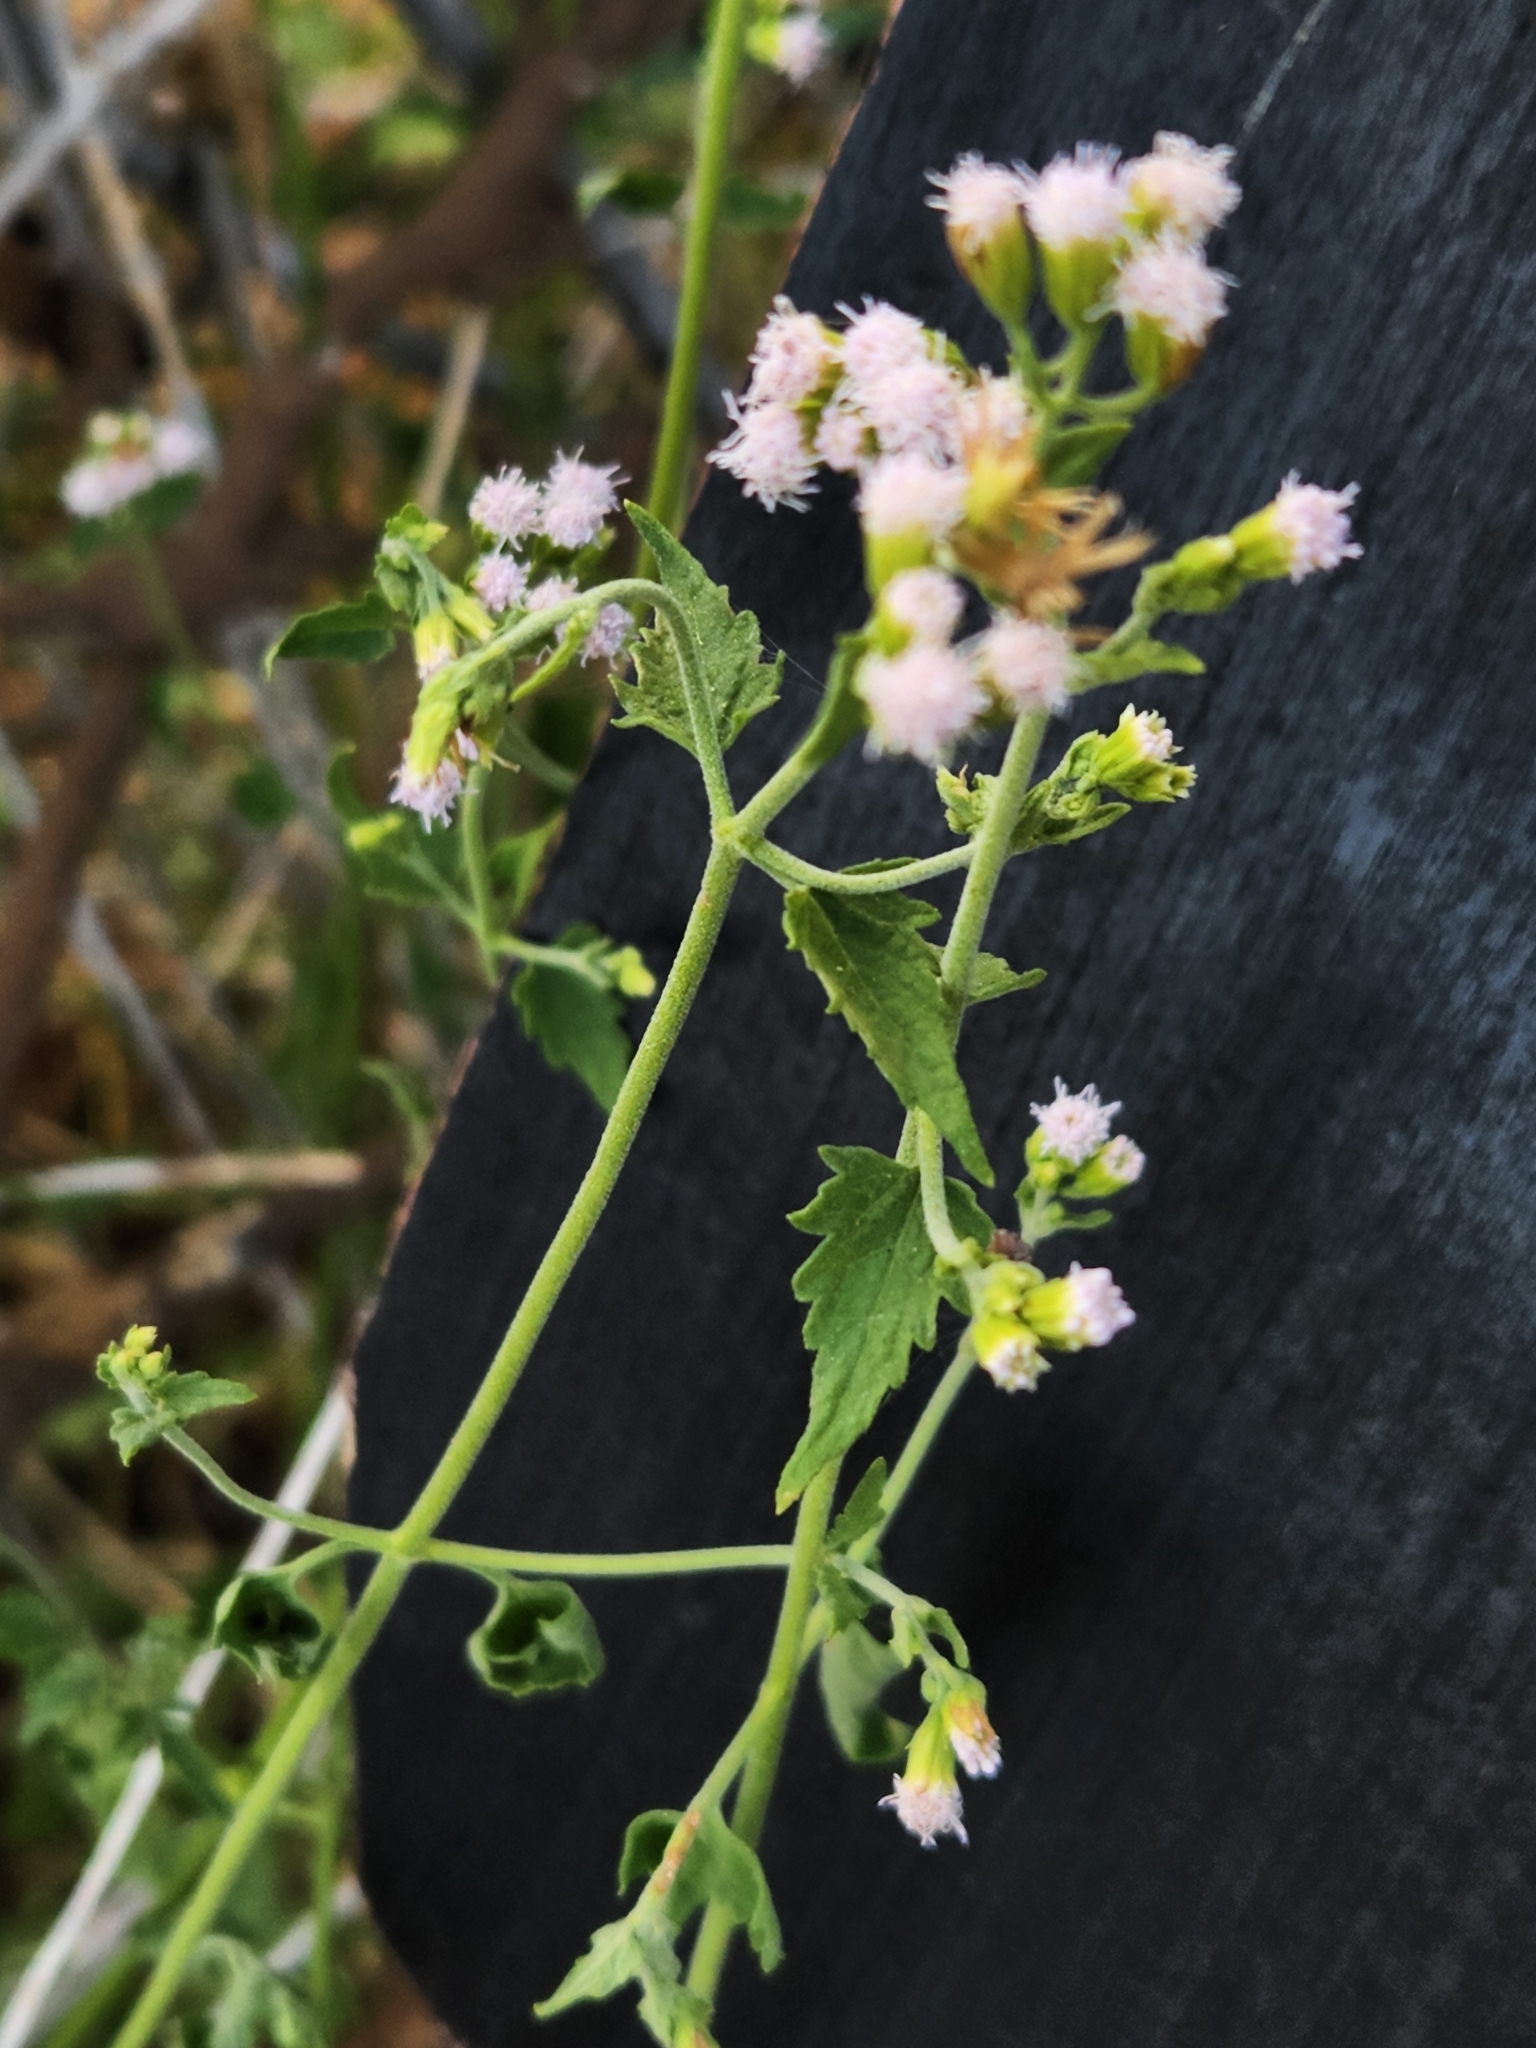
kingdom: Plantae
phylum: Tracheophyta
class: Magnoliopsida
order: Asterales
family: Asteraceae
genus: Fleischmannia
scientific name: Fleischmannia incarnata
